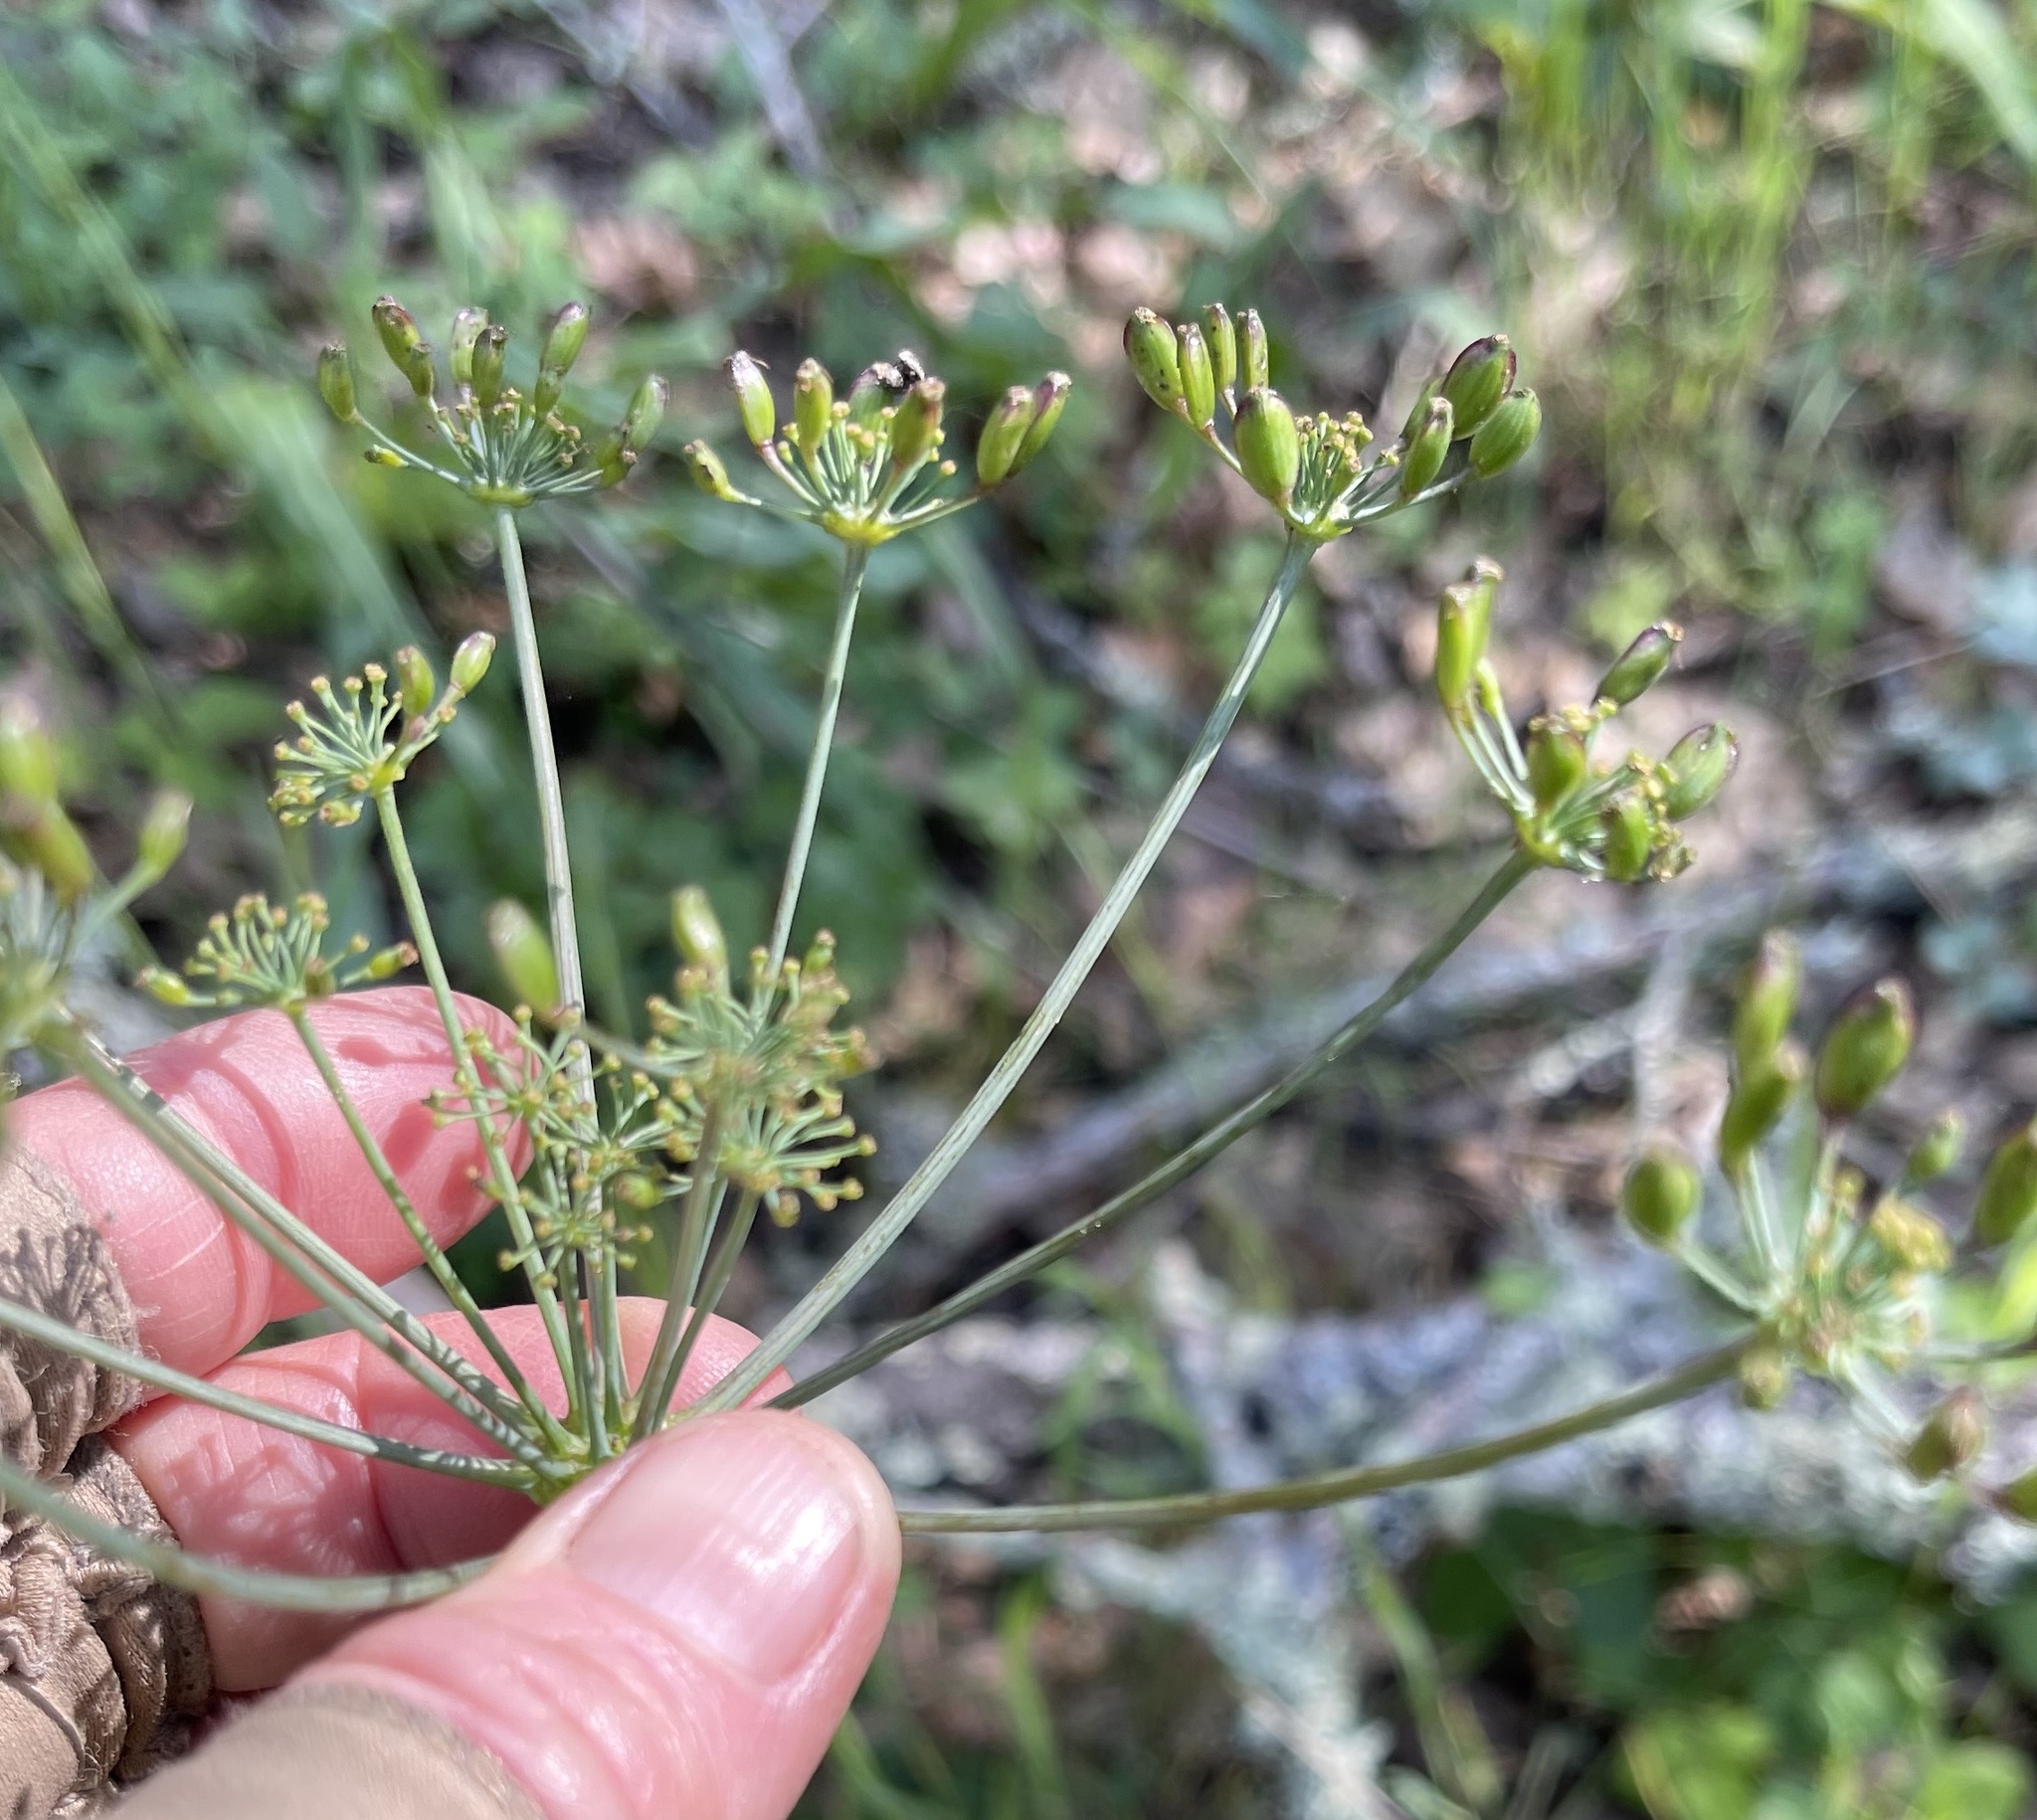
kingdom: Plantae
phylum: Tracheophyta
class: Magnoliopsida
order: Apiales
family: Apiaceae
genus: Lomatium
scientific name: Lomatium californicum
